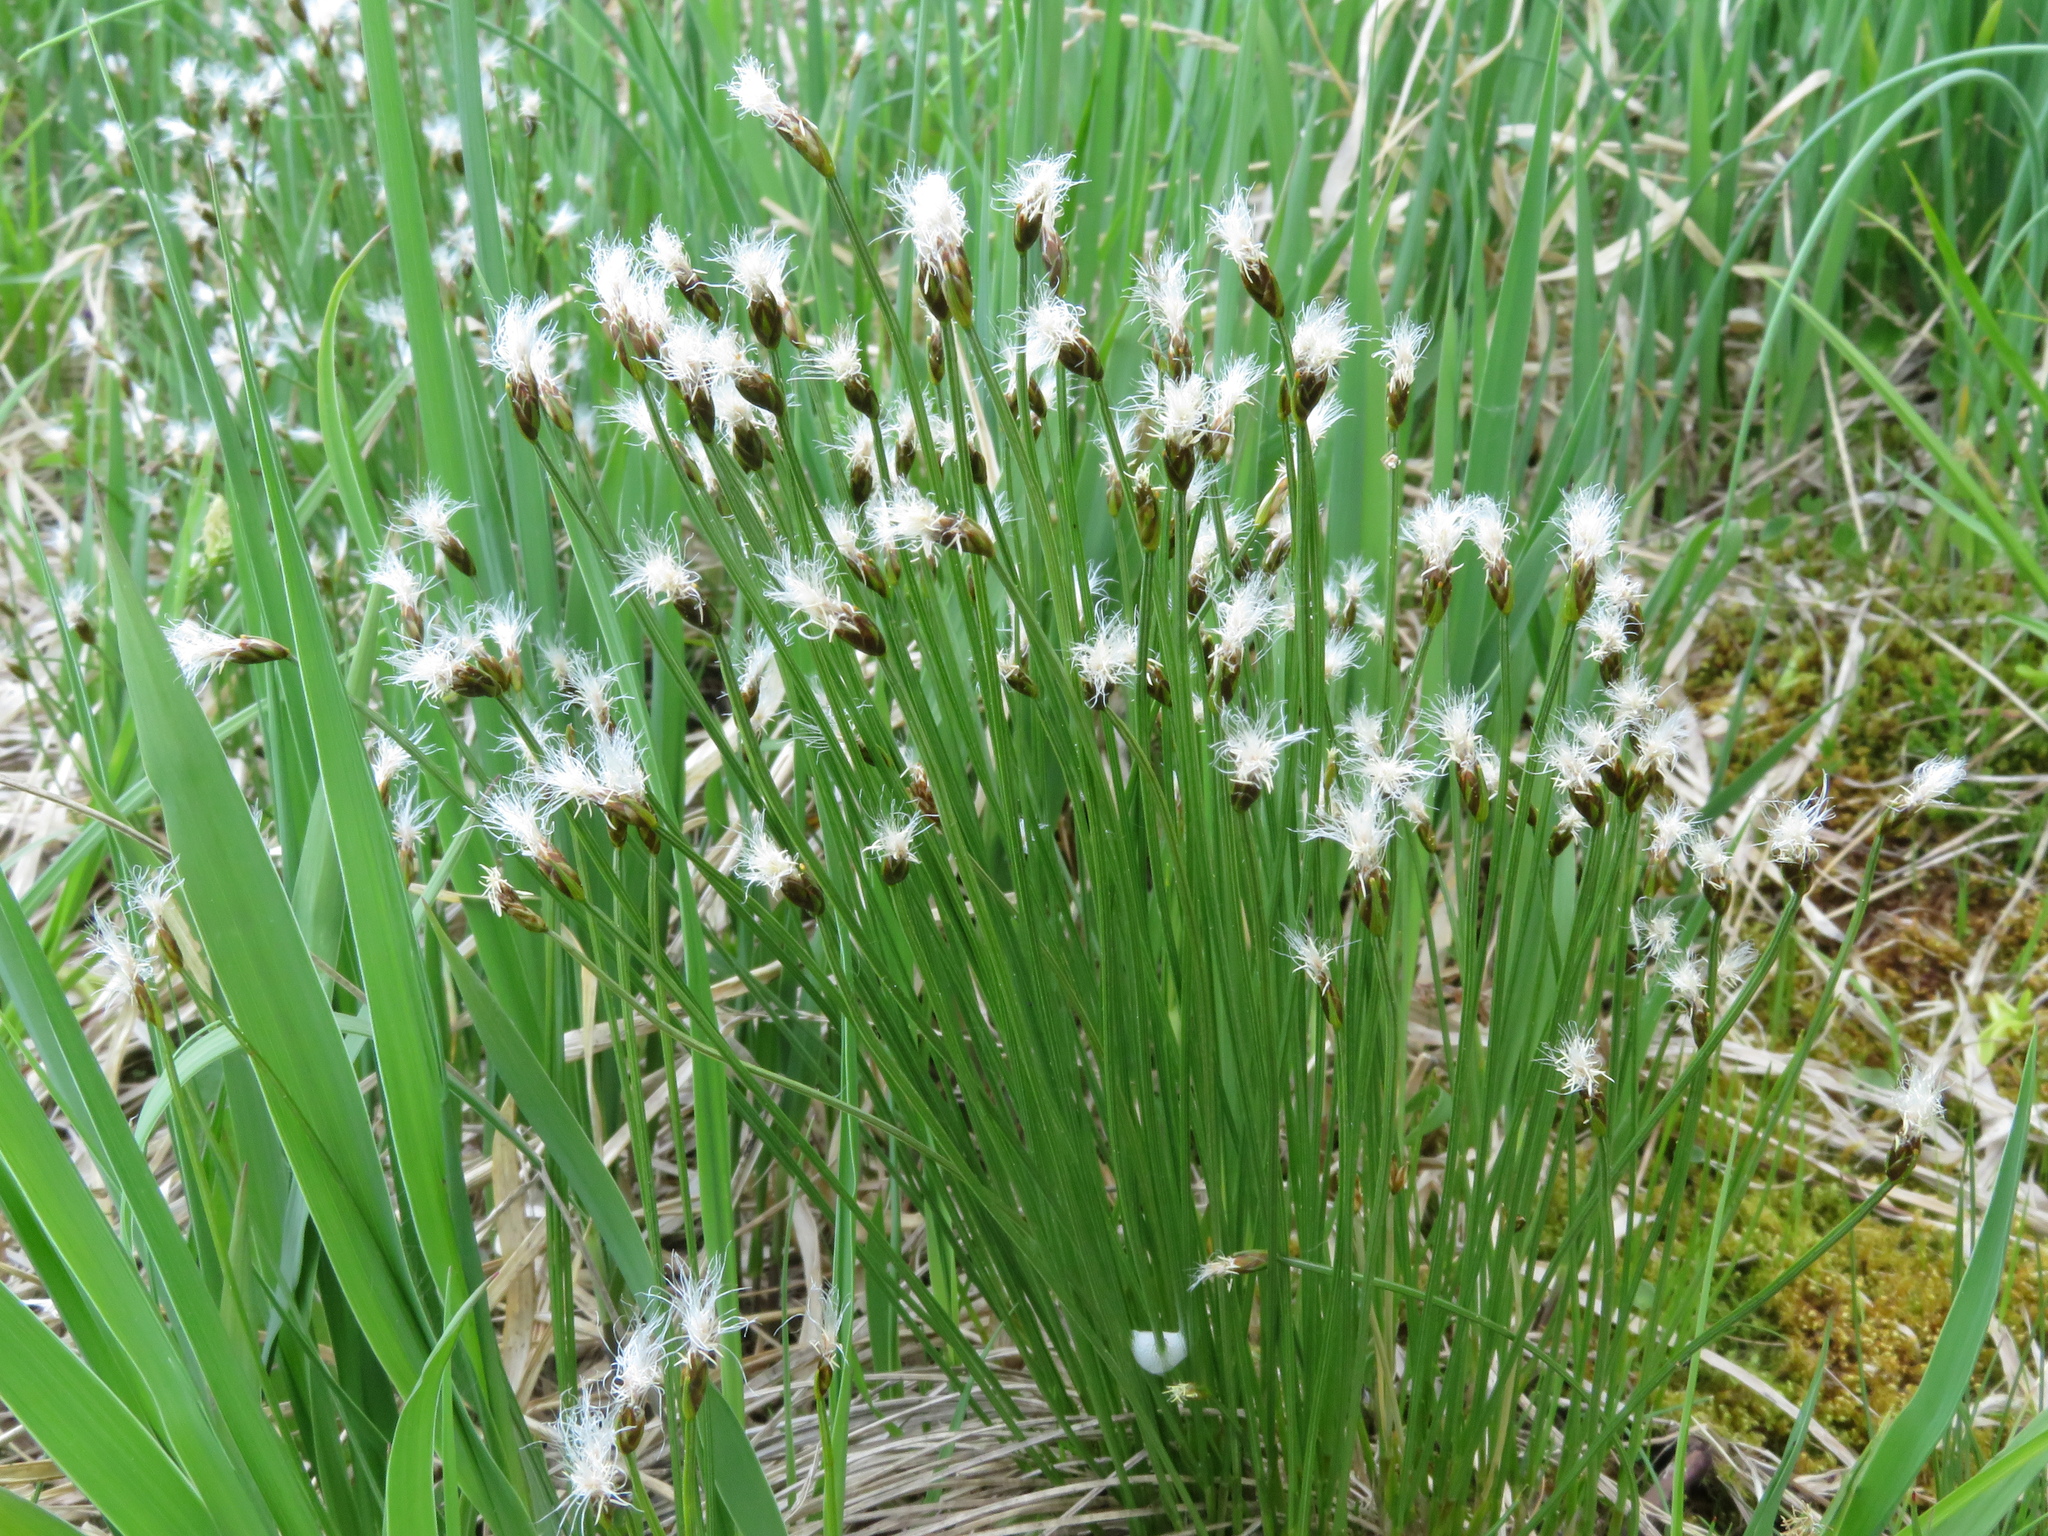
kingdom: Plantae
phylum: Tracheophyta
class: Liliopsida
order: Poales
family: Cyperaceae
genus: Trichophorum
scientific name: Trichophorum alpinum
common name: Alpine bulrush
